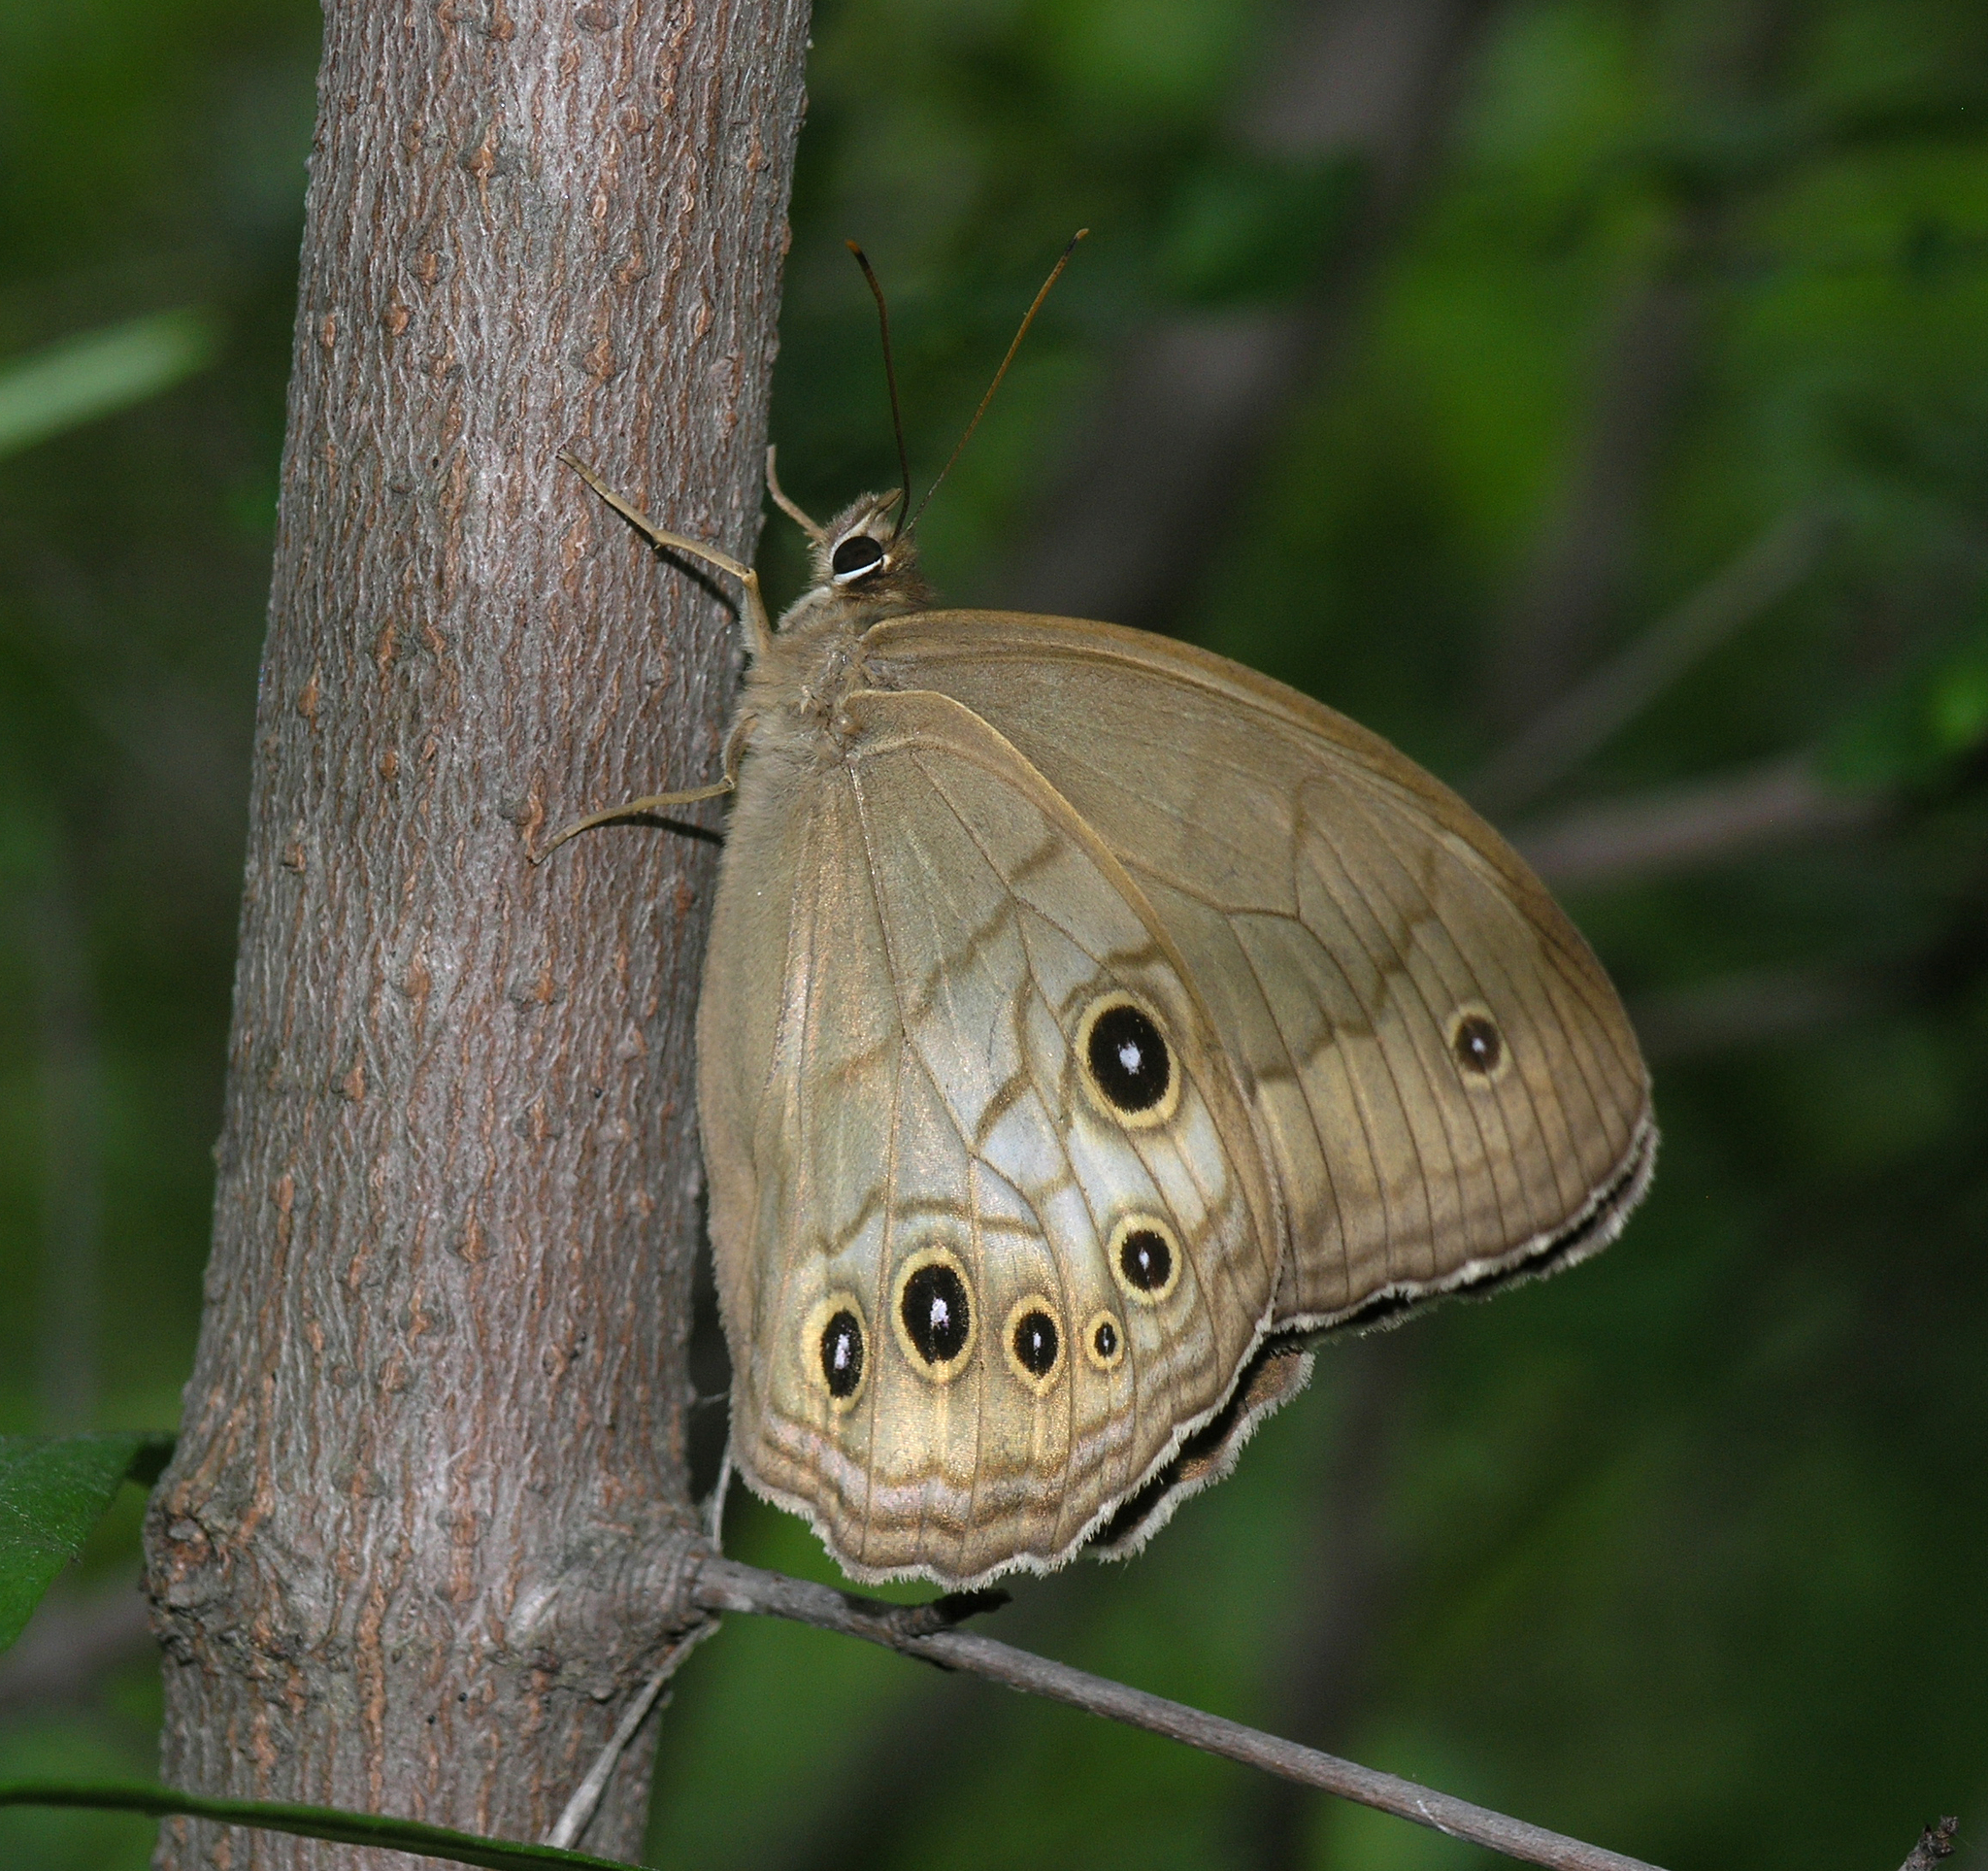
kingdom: Animalia
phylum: Arthropoda
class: Insecta
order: Lepidoptera
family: Nymphalidae
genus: Ninguta
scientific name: Ninguta schrenckii
